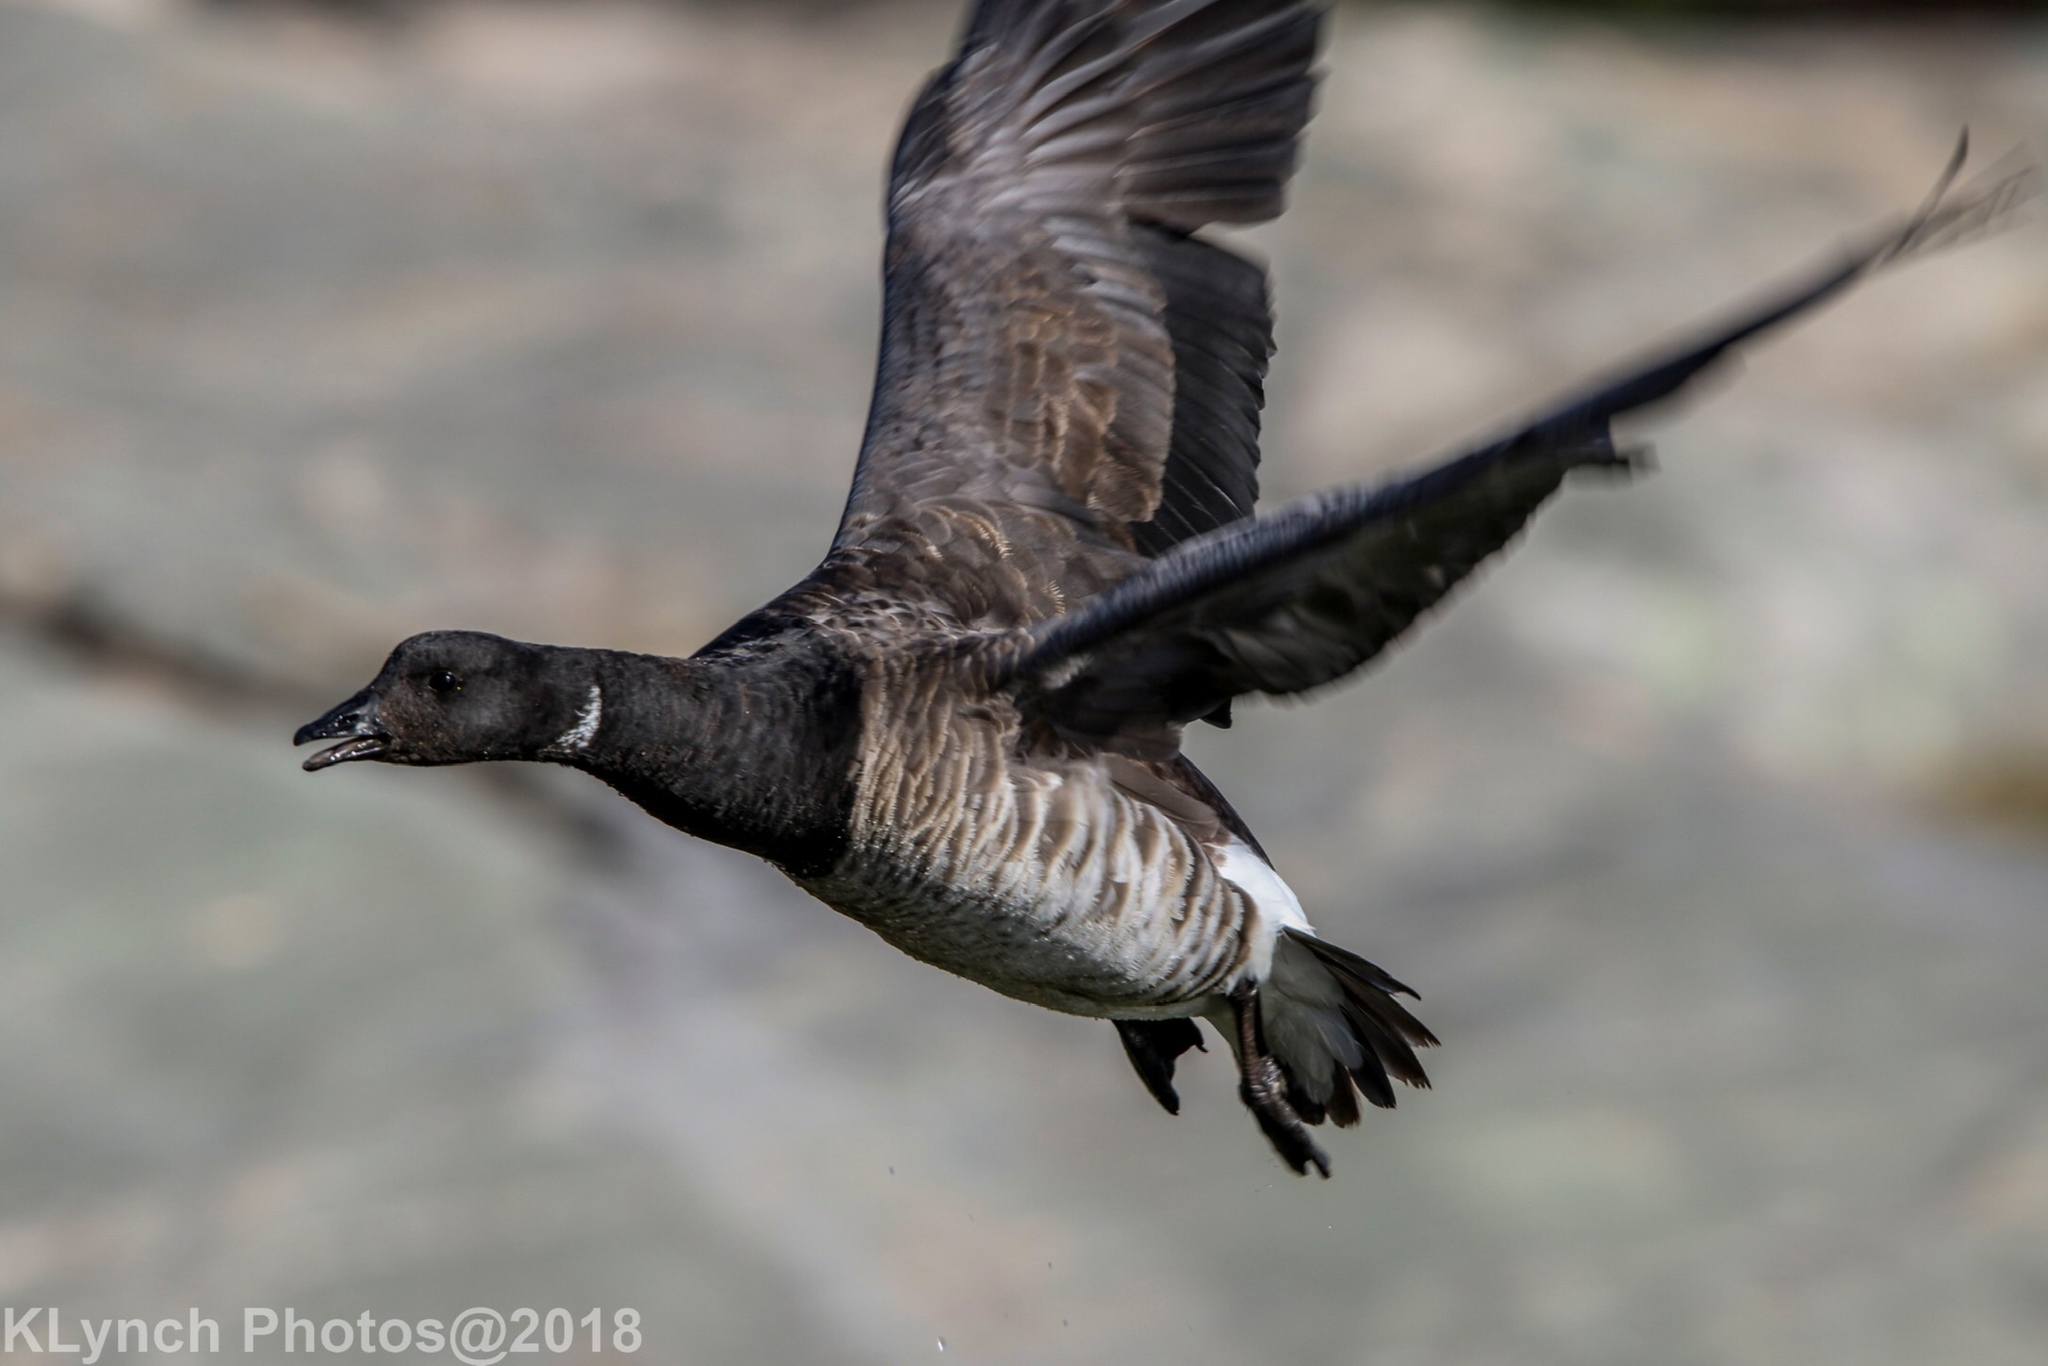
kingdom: Animalia
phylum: Chordata
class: Aves
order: Anseriformes
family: Anatidae
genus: Branta
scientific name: Branta bernicla
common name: Brant goose
